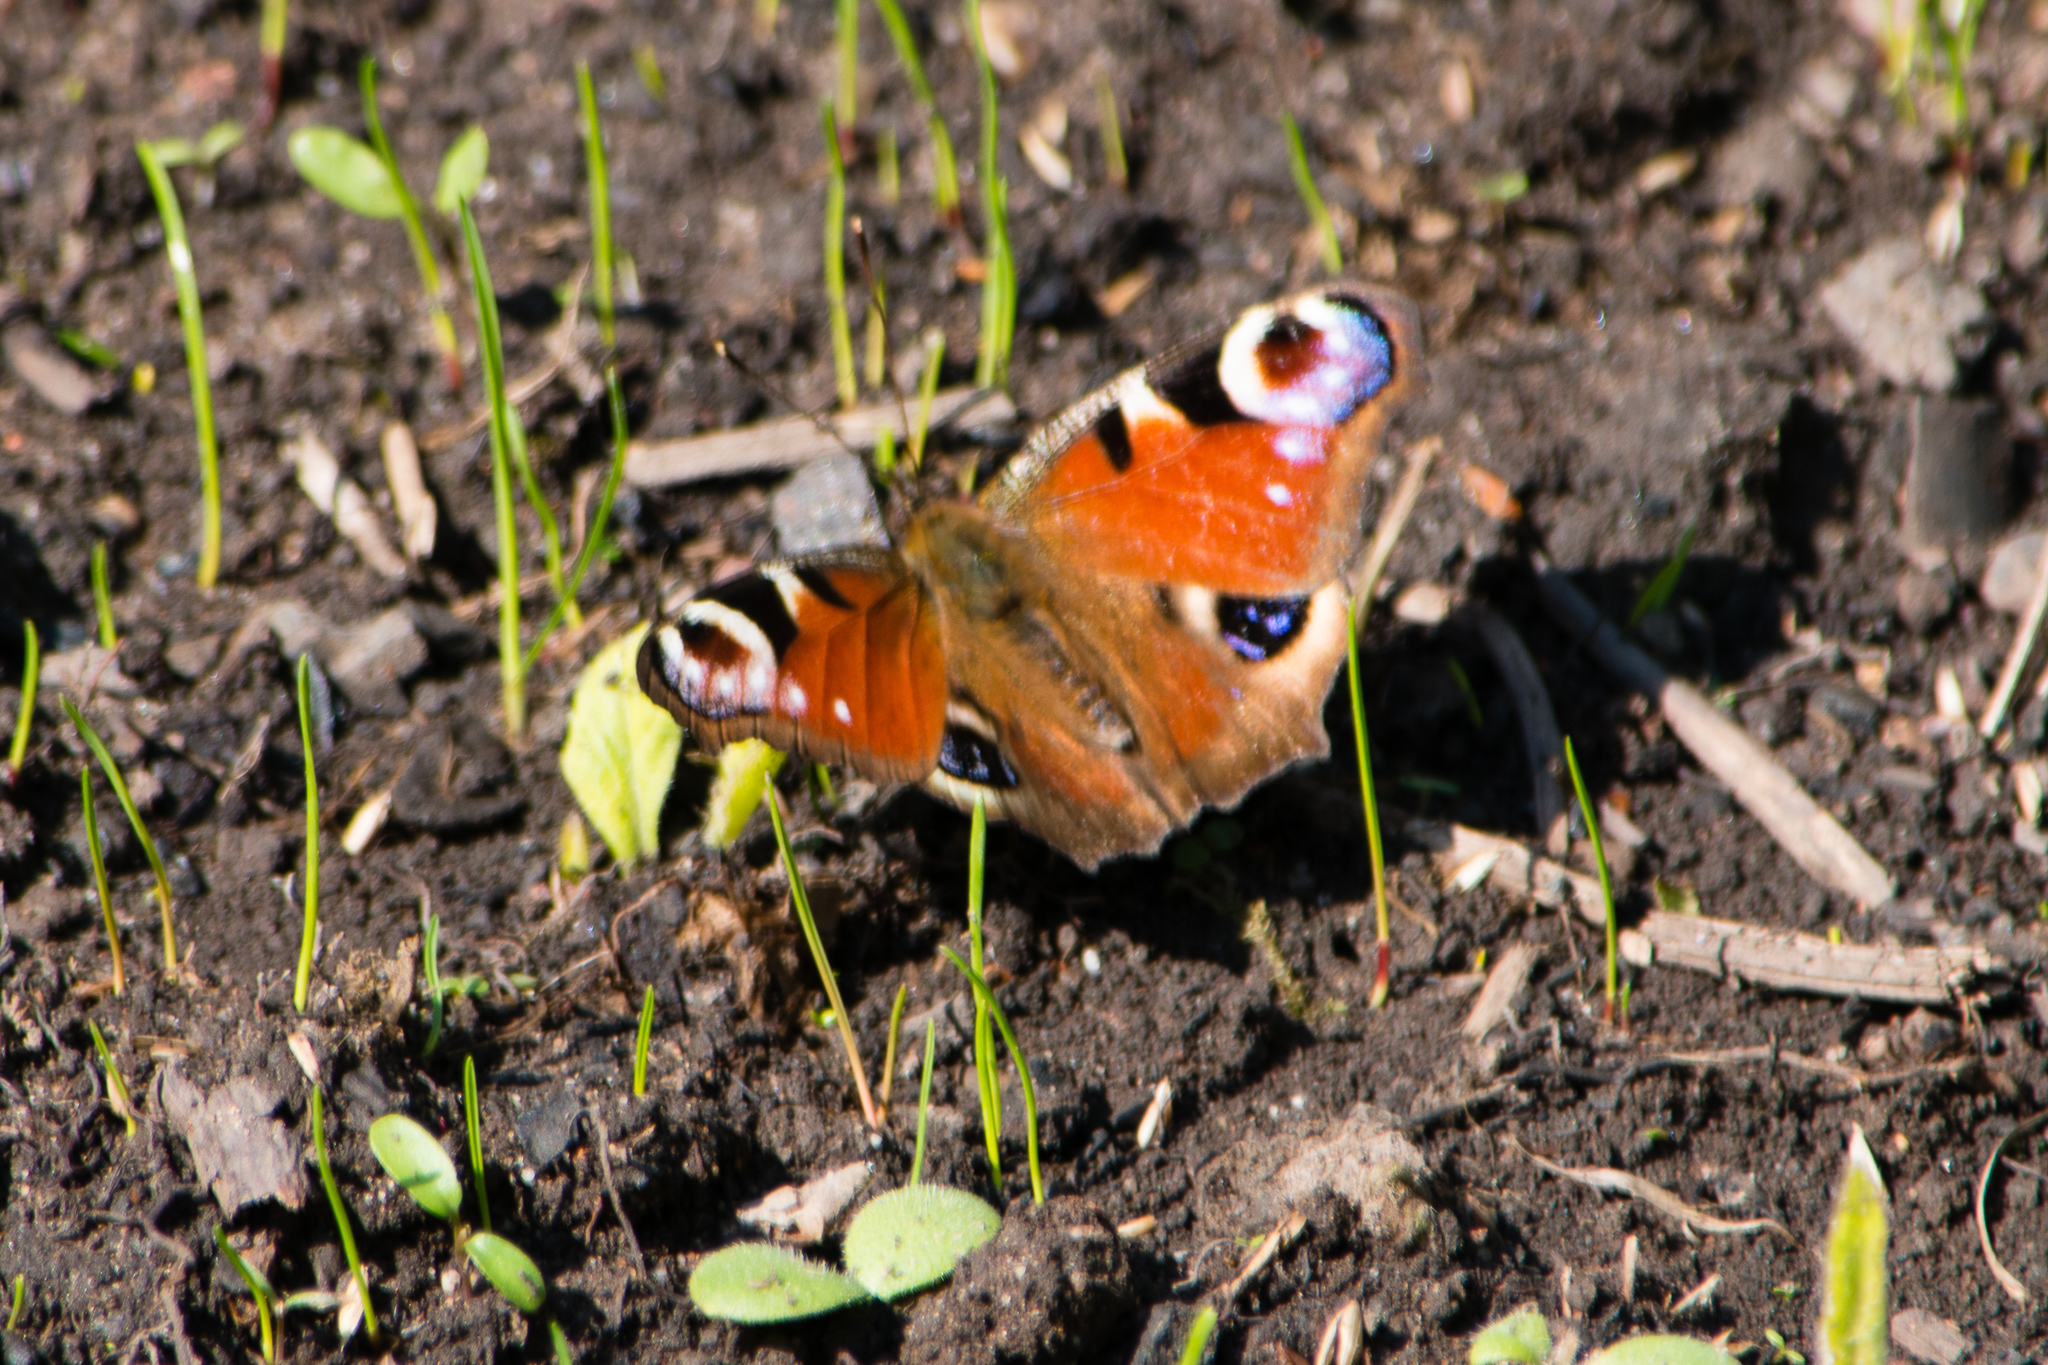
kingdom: Animalia
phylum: Arthropoda
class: Insecta
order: Lepidoptera
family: Nymphalidae
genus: Aglais
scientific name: Aglais io
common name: Peacock
